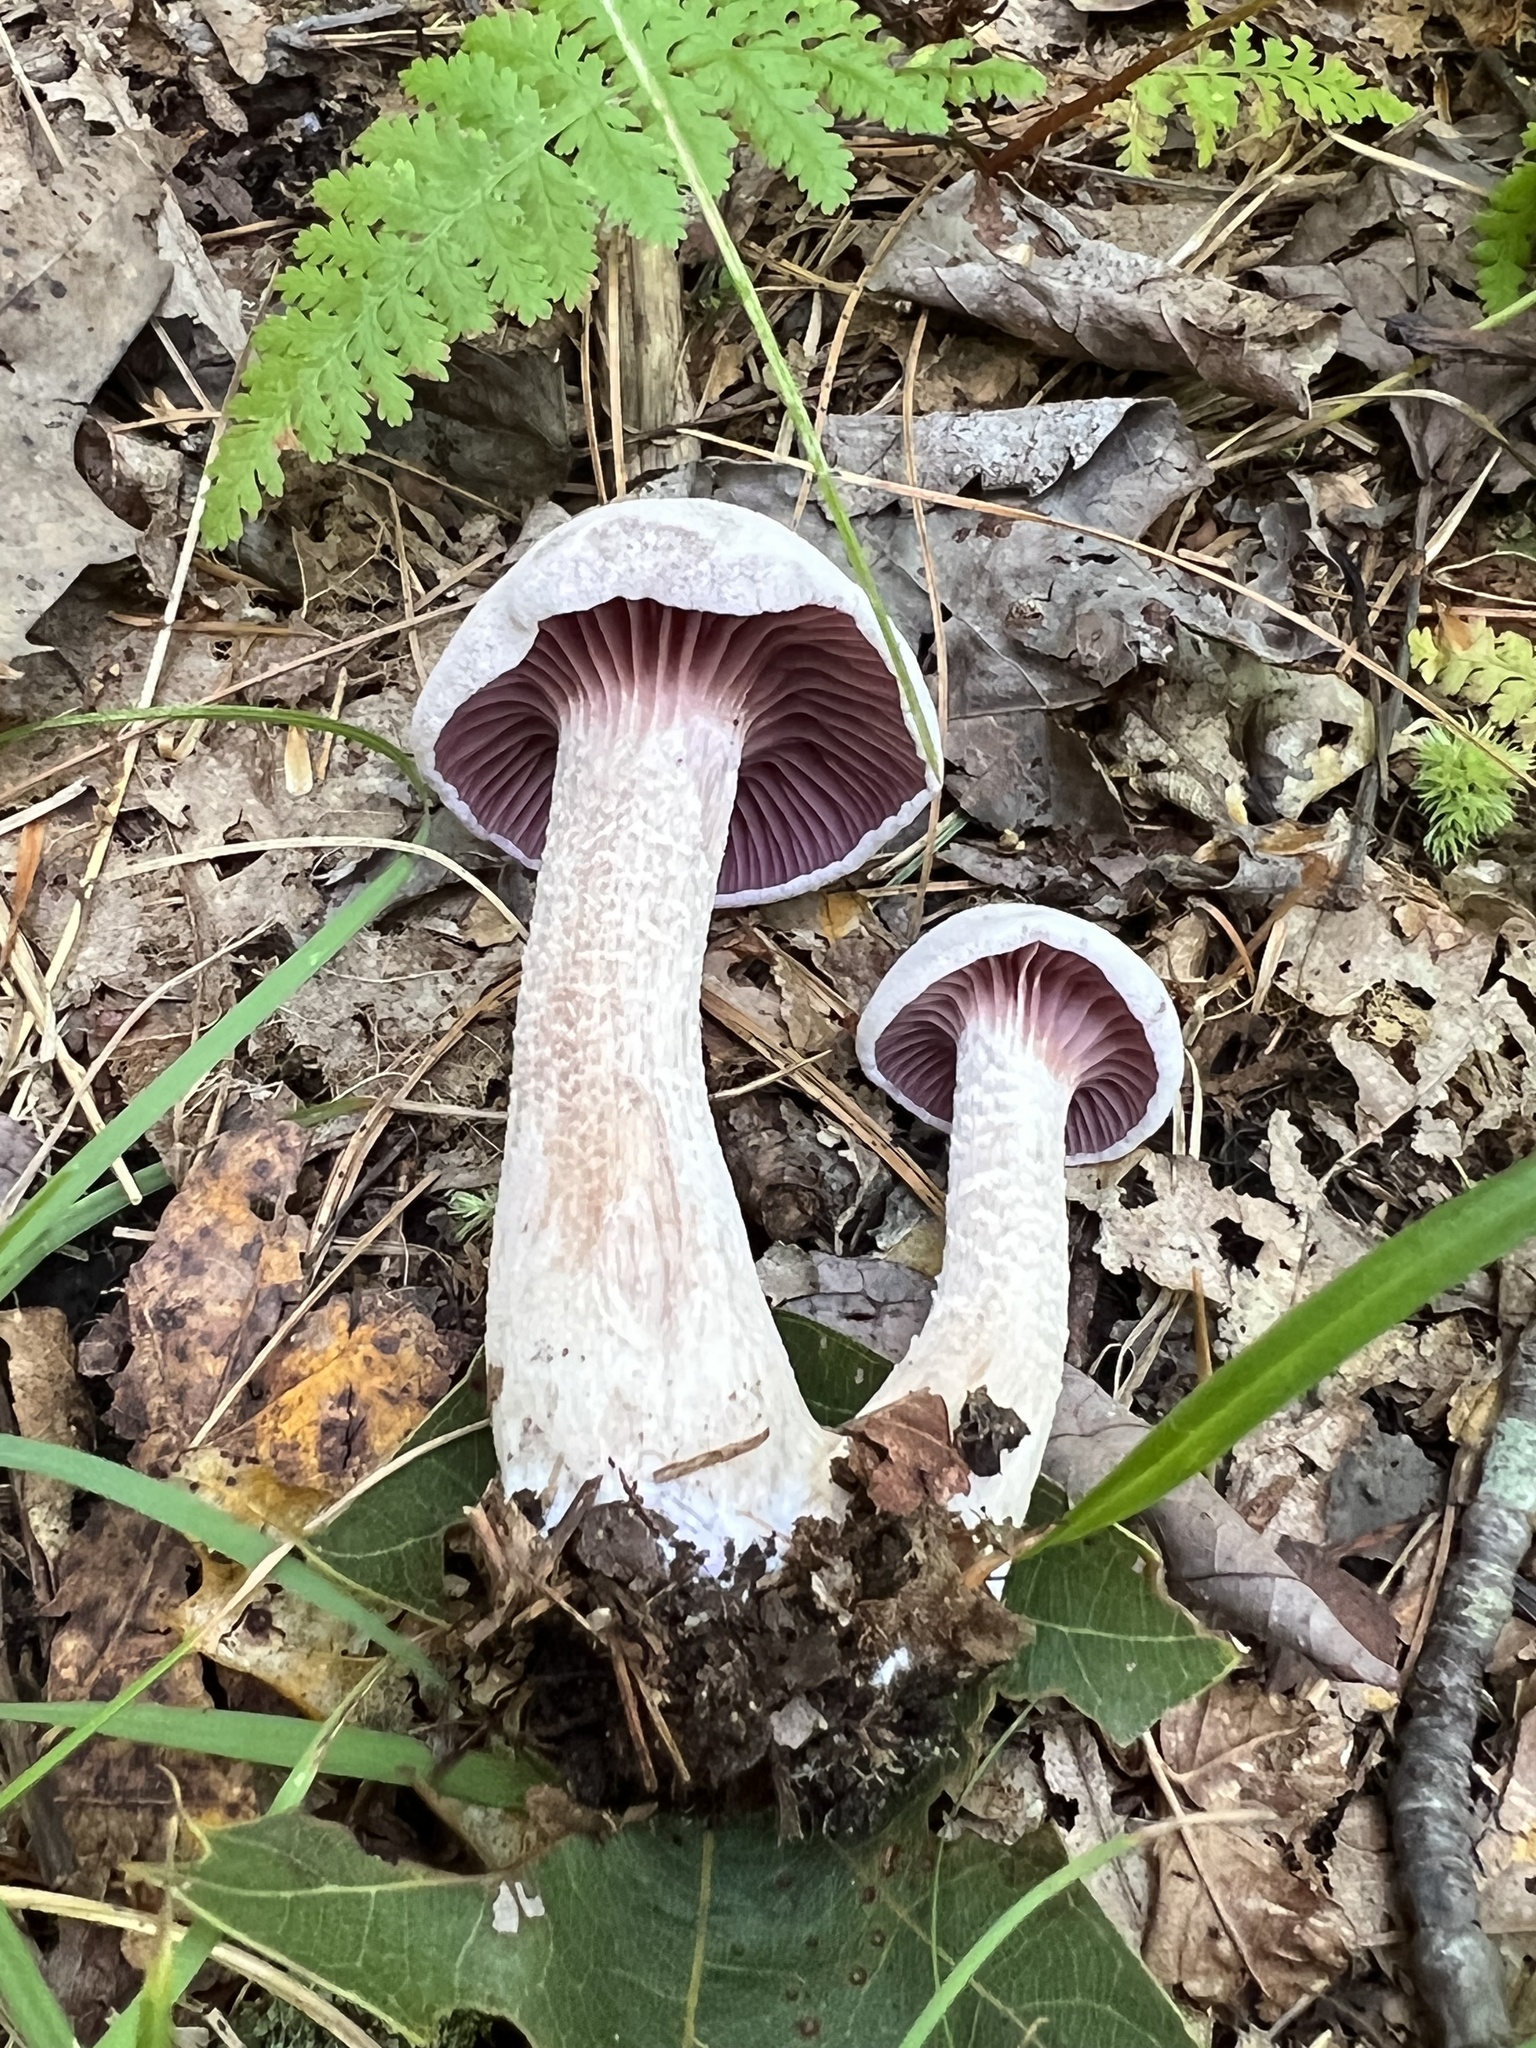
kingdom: Fungi
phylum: Basidiomycota
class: Agaricomycetes
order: Agaricales
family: Hydnangiaceae
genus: Laccaria
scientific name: Laccaria ochropurpurea
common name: Purple laccaria
